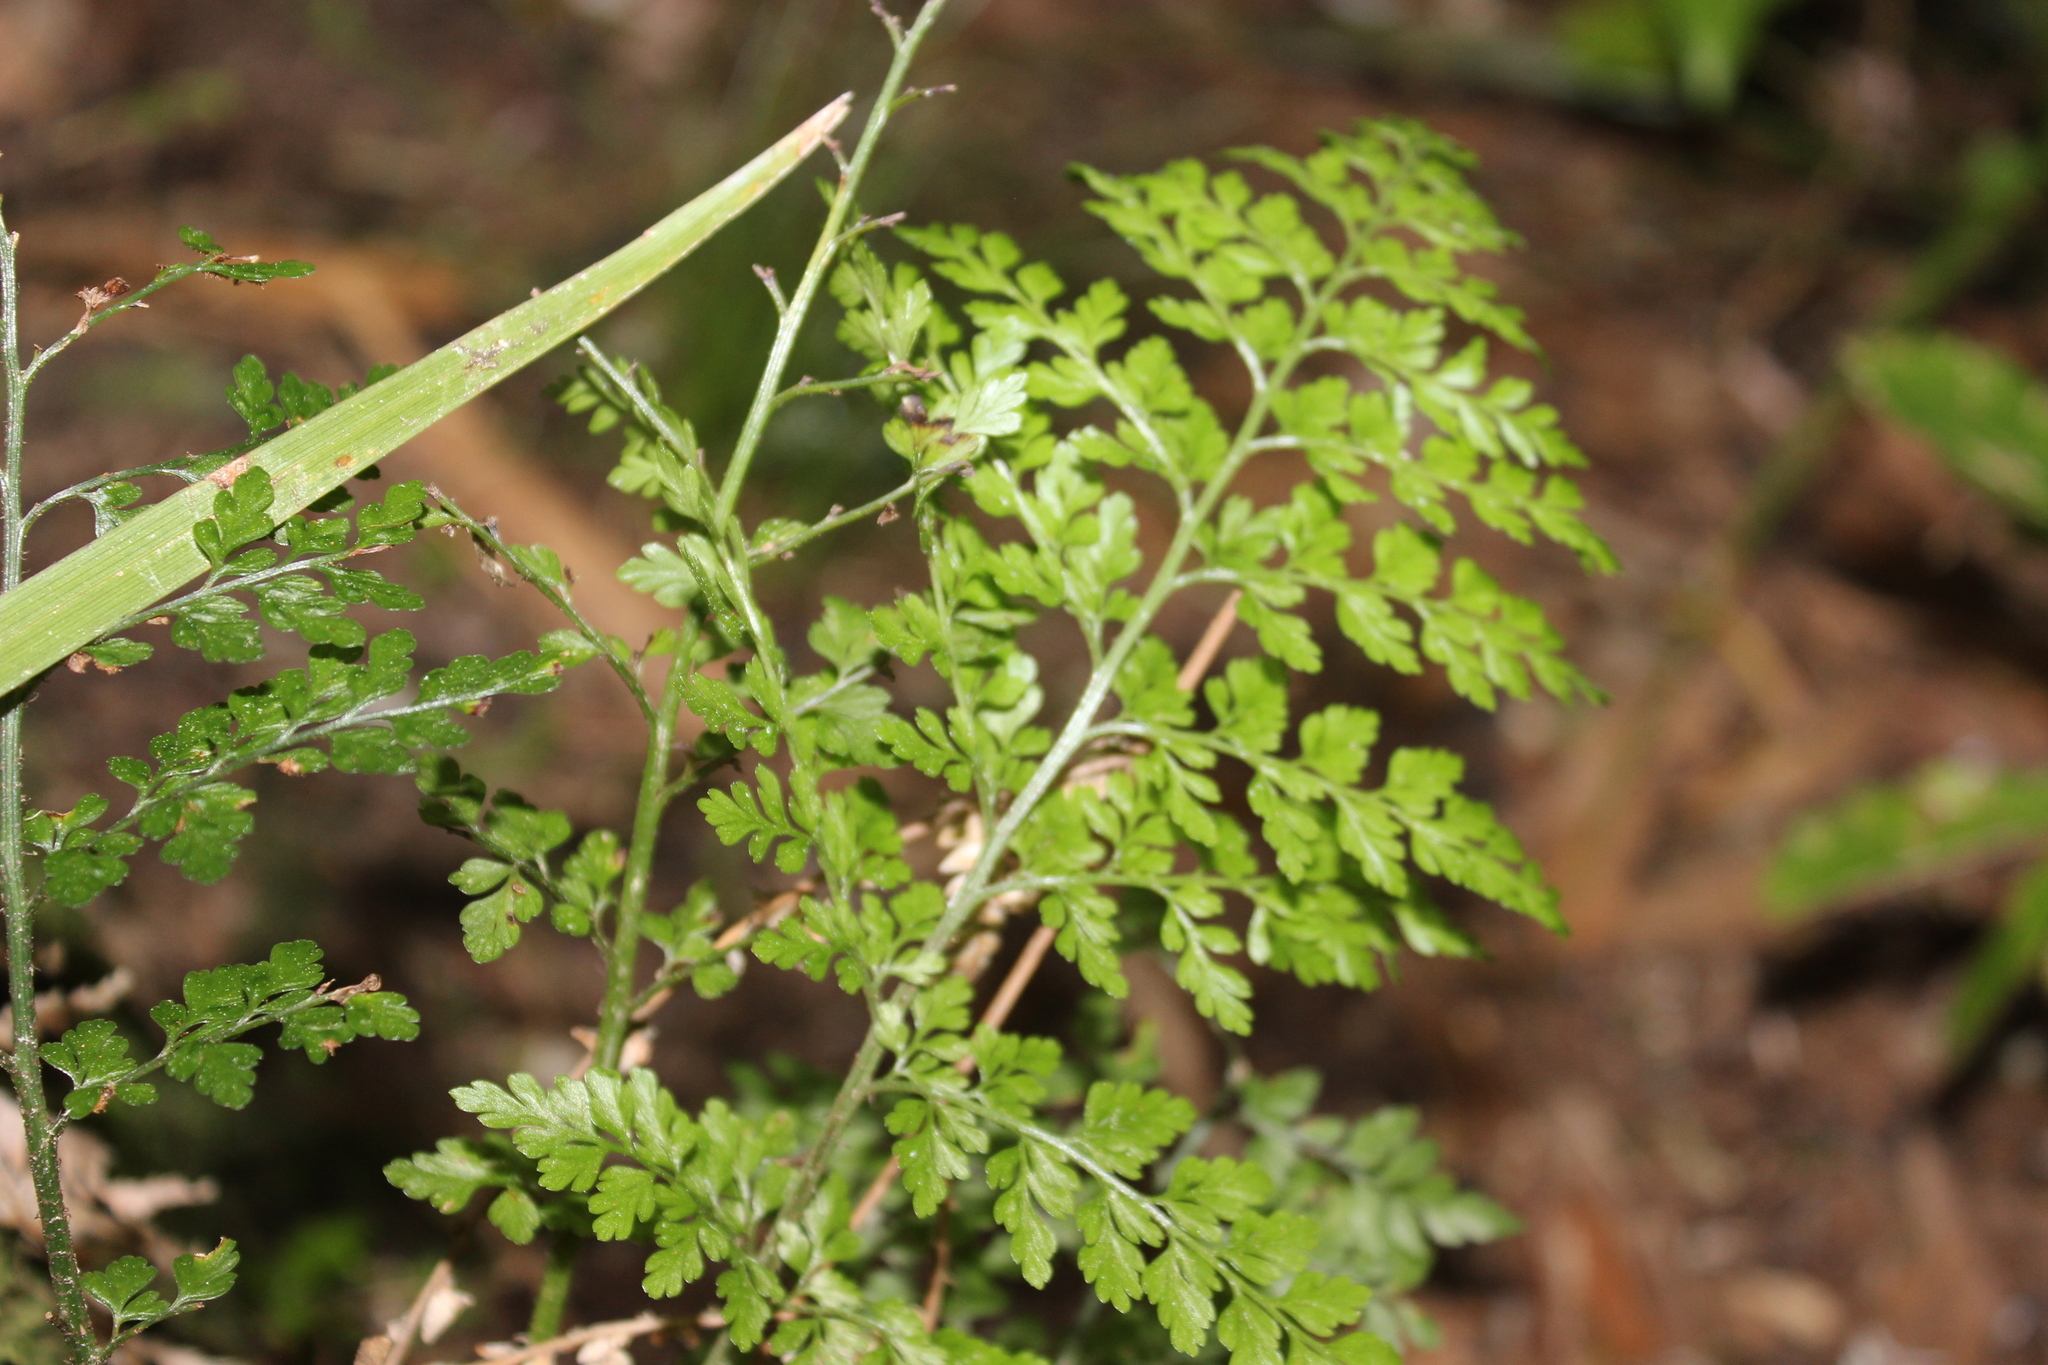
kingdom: Plantae
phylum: Tracheophyta
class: Polypodiopsida
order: Polypodiales
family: Aspleniaceae
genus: Asplenium
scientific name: Asplenium hookerianum
